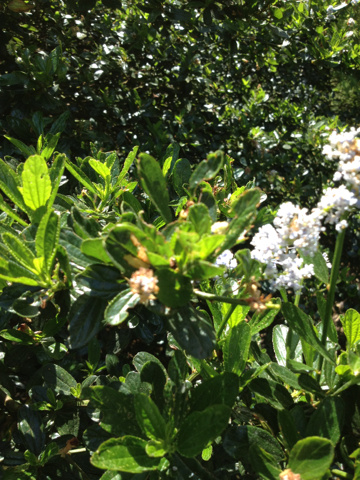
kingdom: Plantae
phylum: Tracheophyta
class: Magnoliopsida
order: Rosales
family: Rhamnaceae
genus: Ceanothus
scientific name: Ceanothus thyrsiflorus
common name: California-lilac
